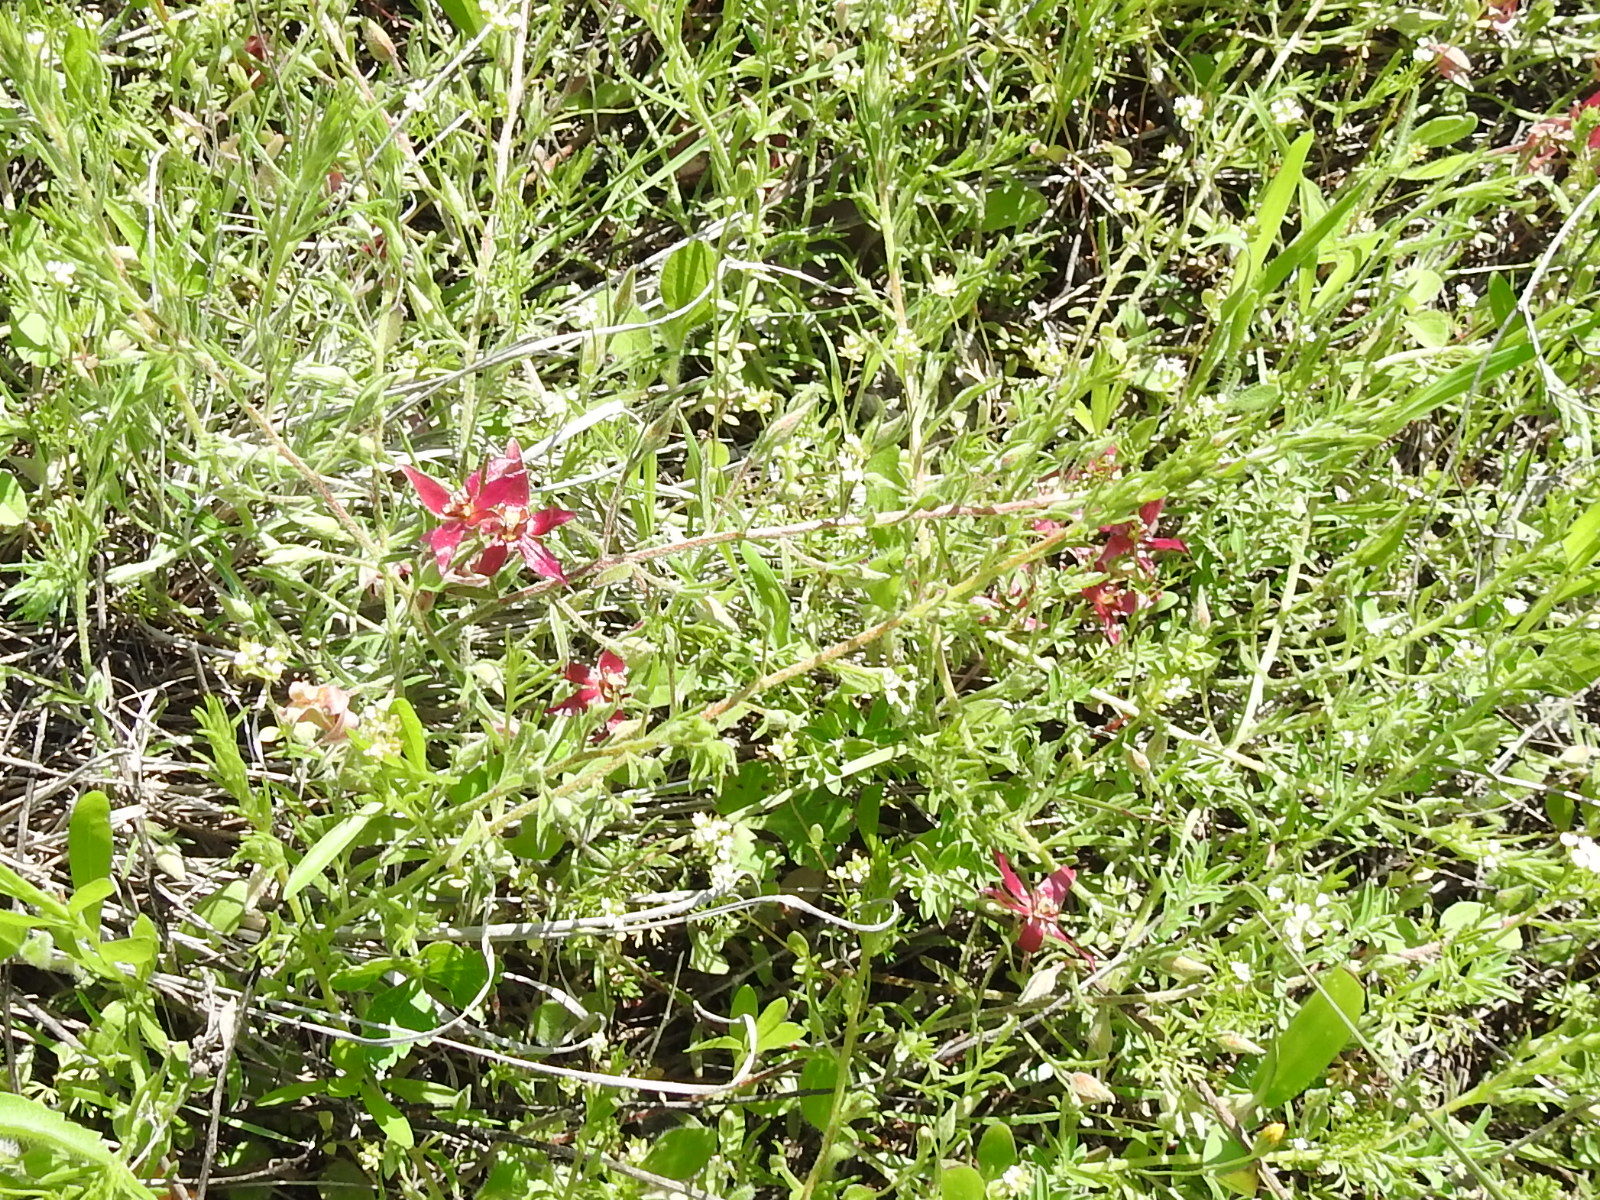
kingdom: Plantae
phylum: Tracheophyta
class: Magnoliopsida
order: Zygophyllales
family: Krameriaceae
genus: Krameria
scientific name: Krameria lanceolata
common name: Ratany
